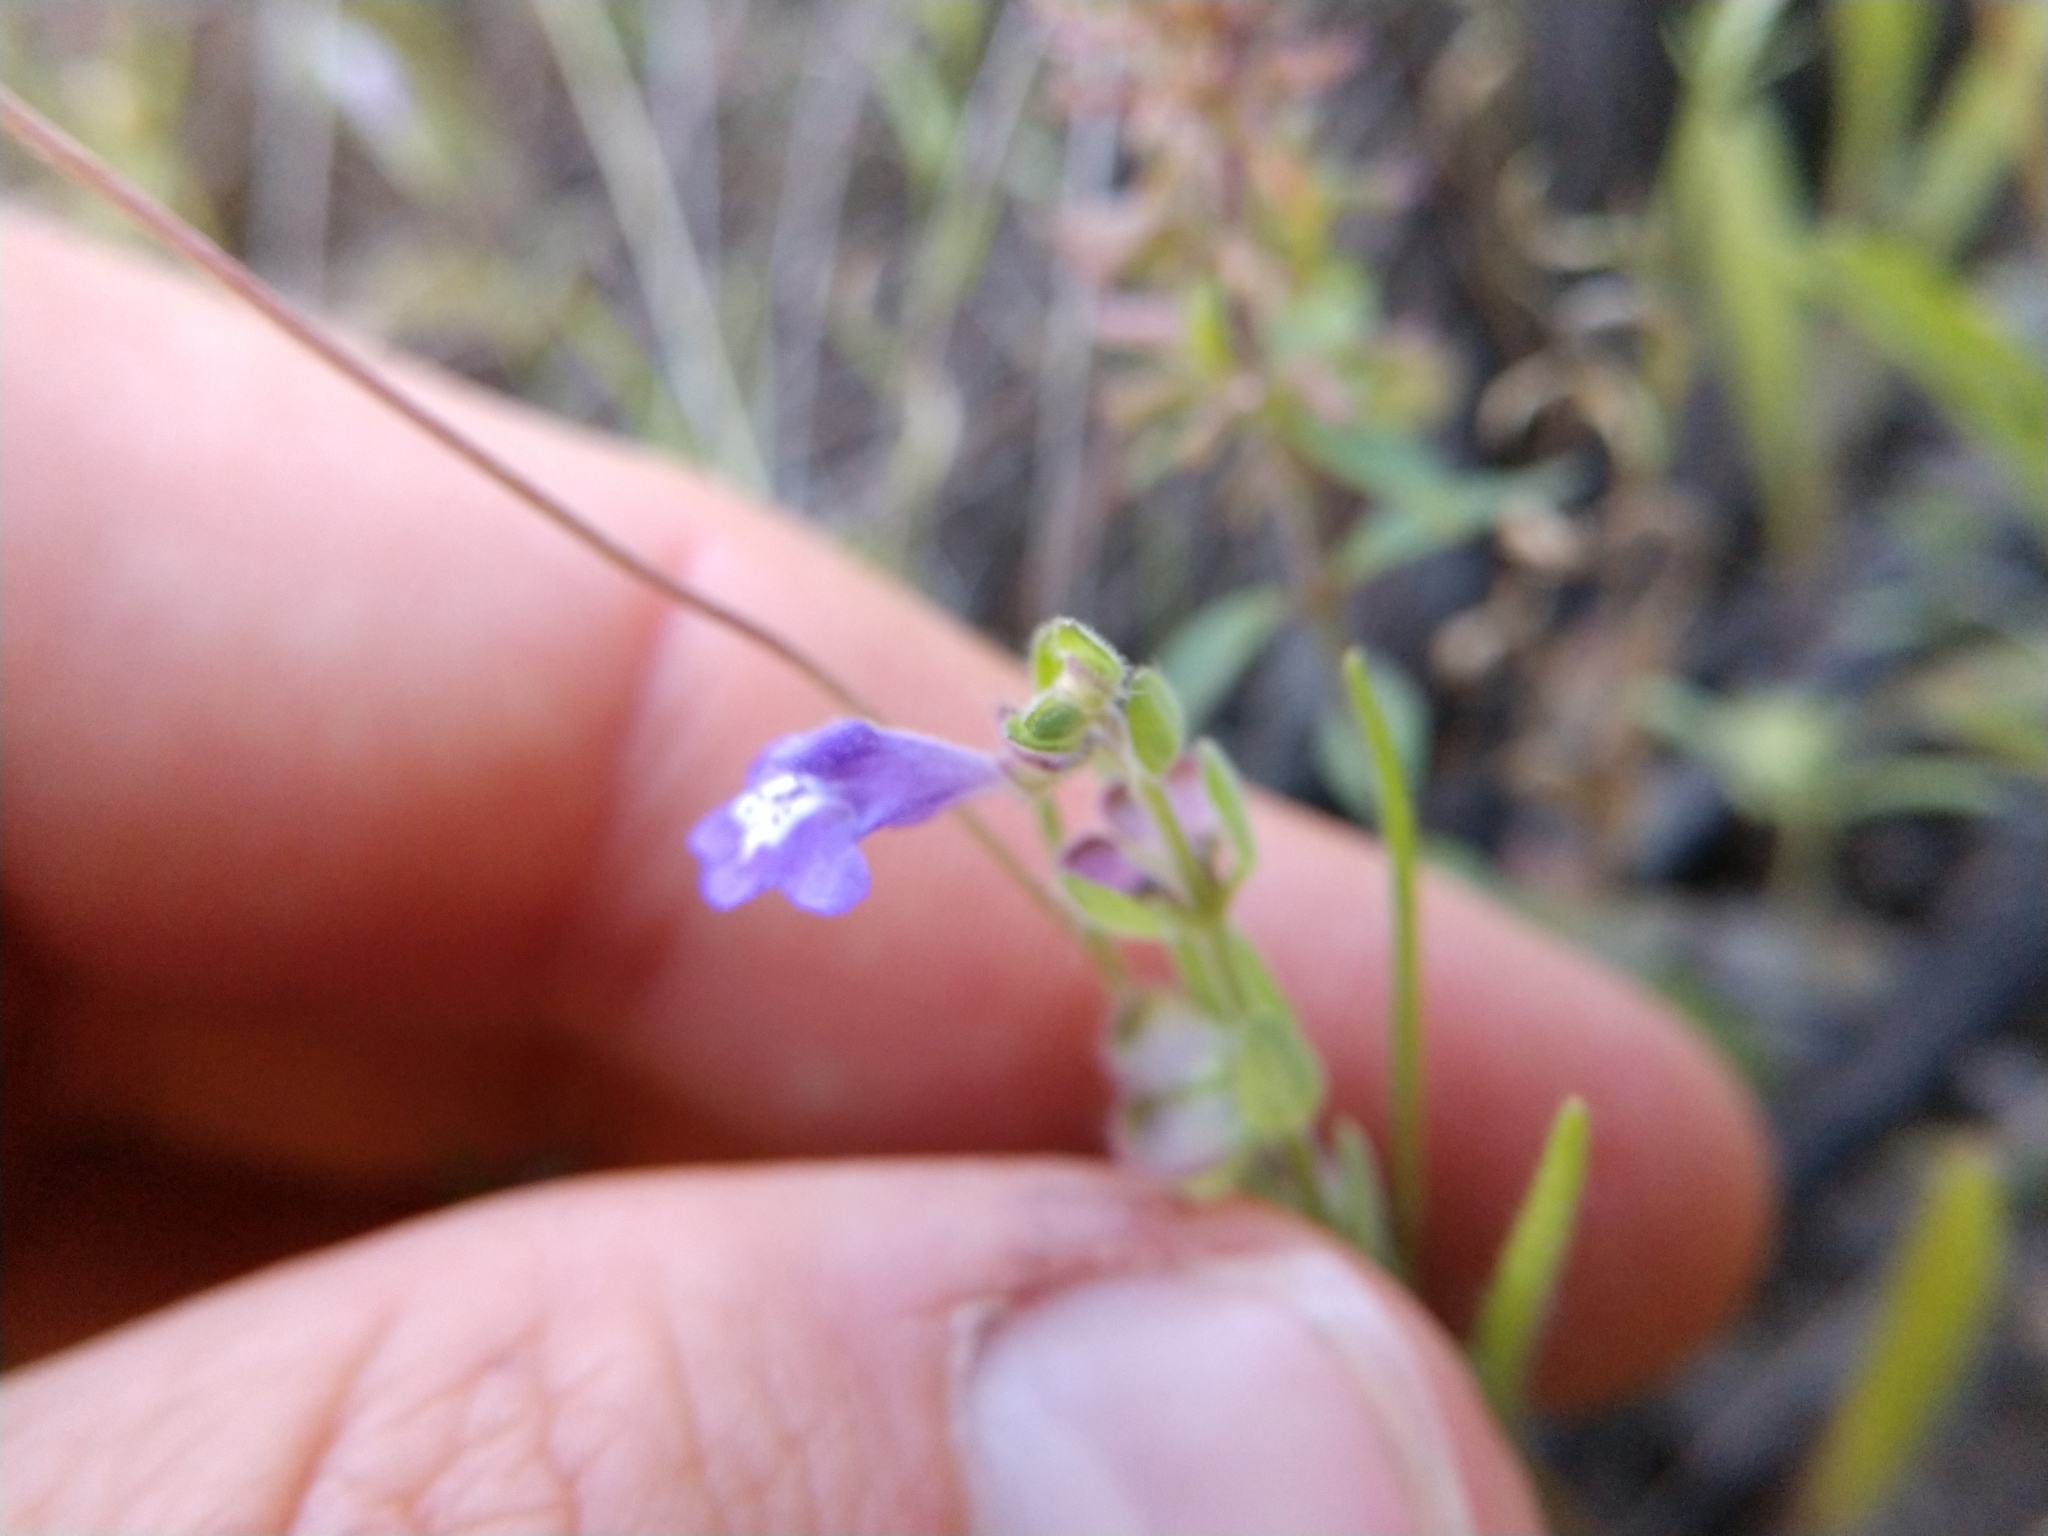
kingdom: Plantae
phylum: Tracheophyta
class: Magnoliopsida
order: Lamiales
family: Lamiaceae
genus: Scutellaria
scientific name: Scutellaria drummondii
